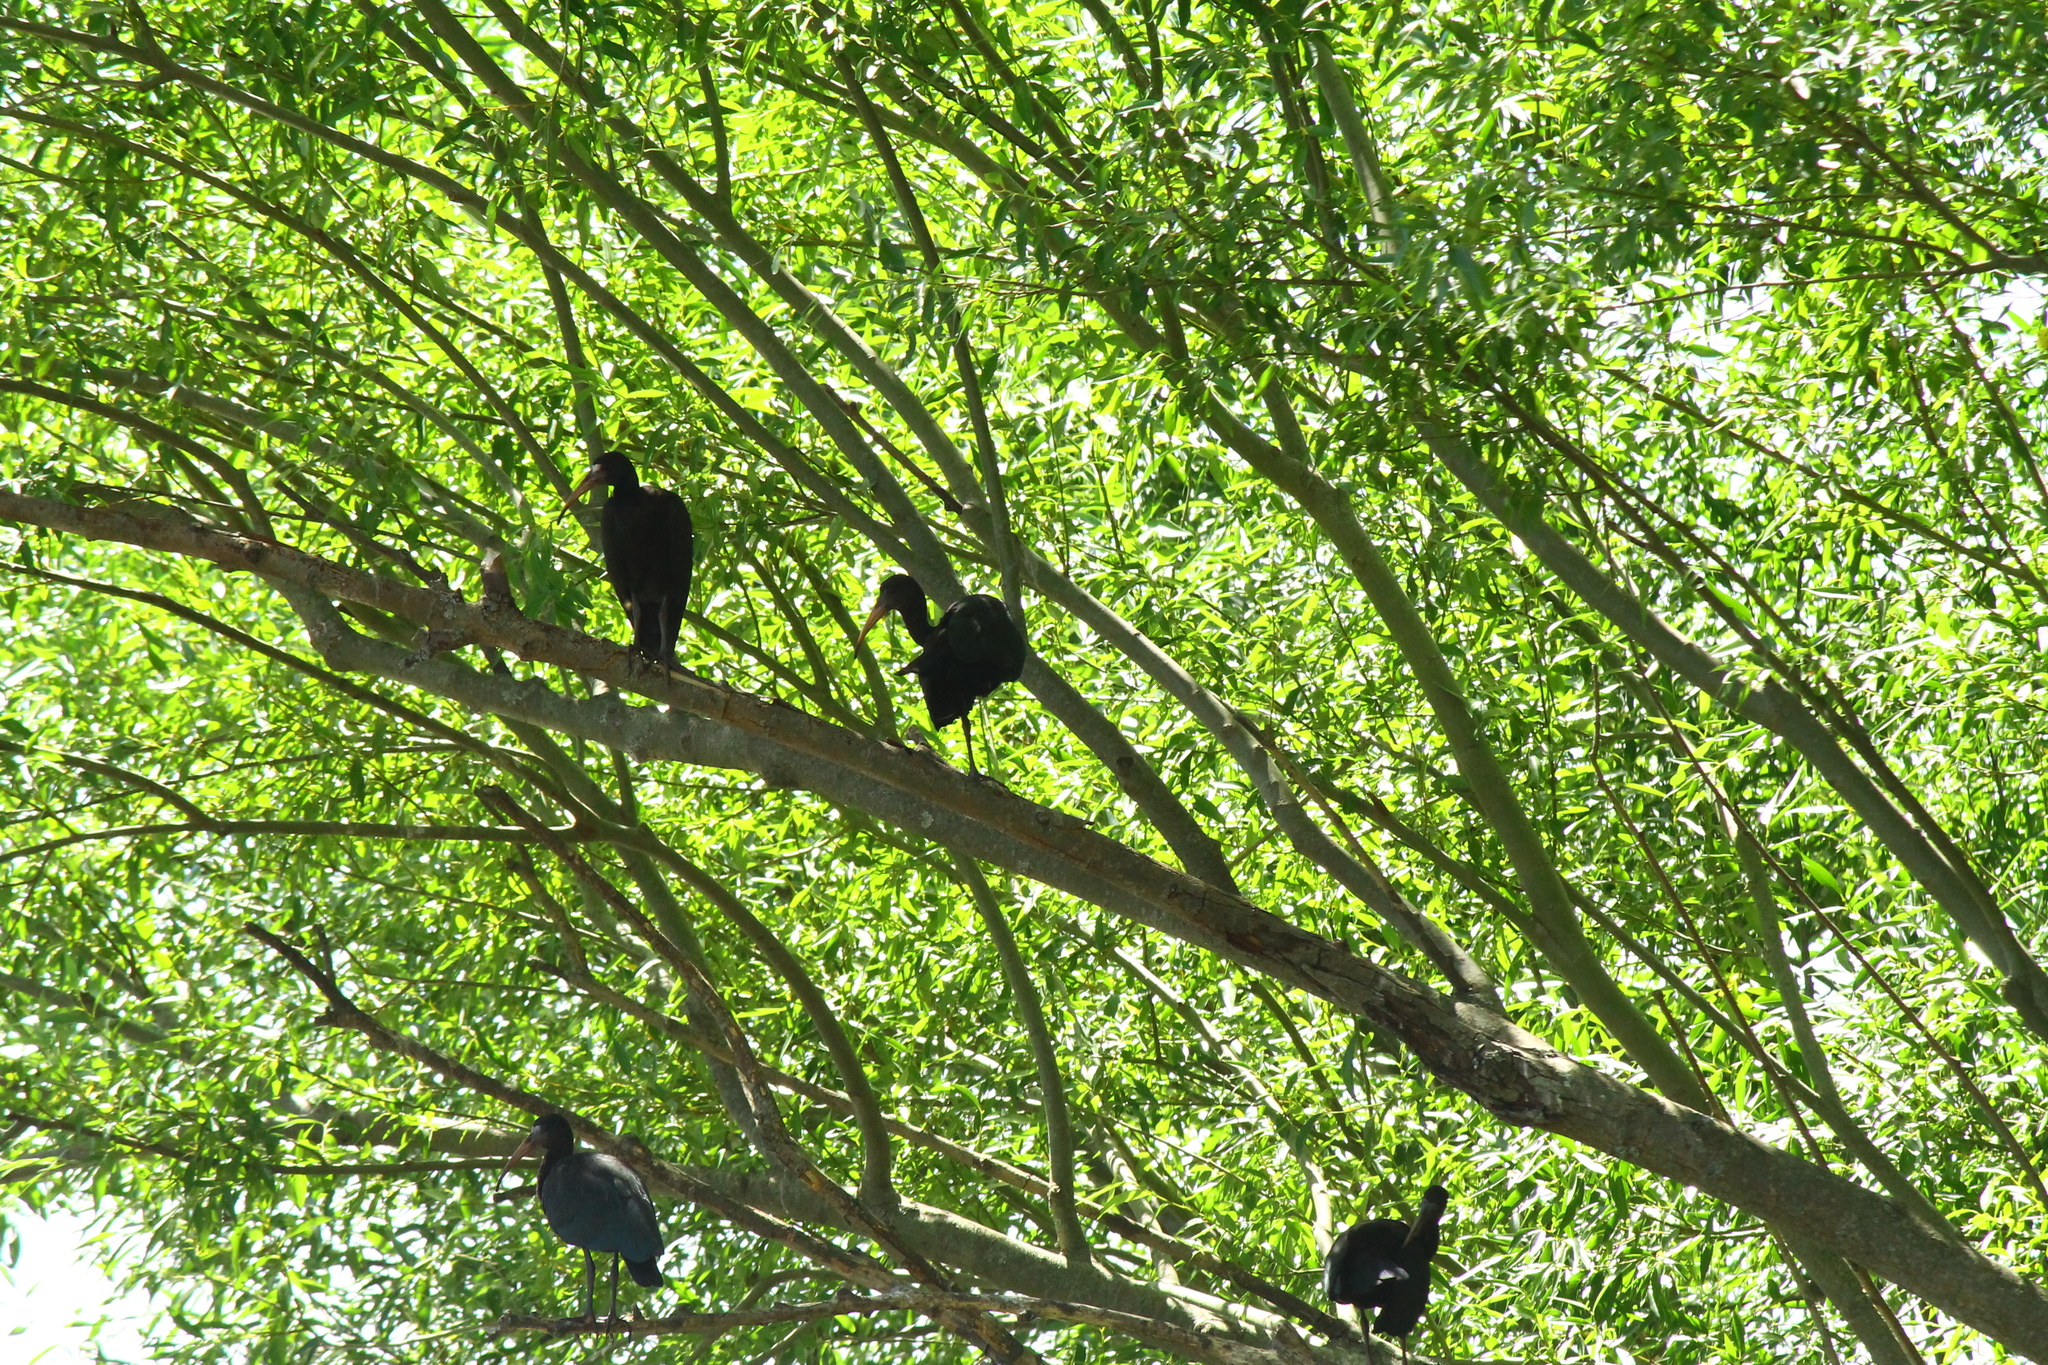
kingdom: Animalia
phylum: Chordata
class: Aves
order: Pelecaniformes
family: Threskiornithidae
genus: Phimosus
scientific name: Phimosus infuscatus
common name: Bare-faced ibis
